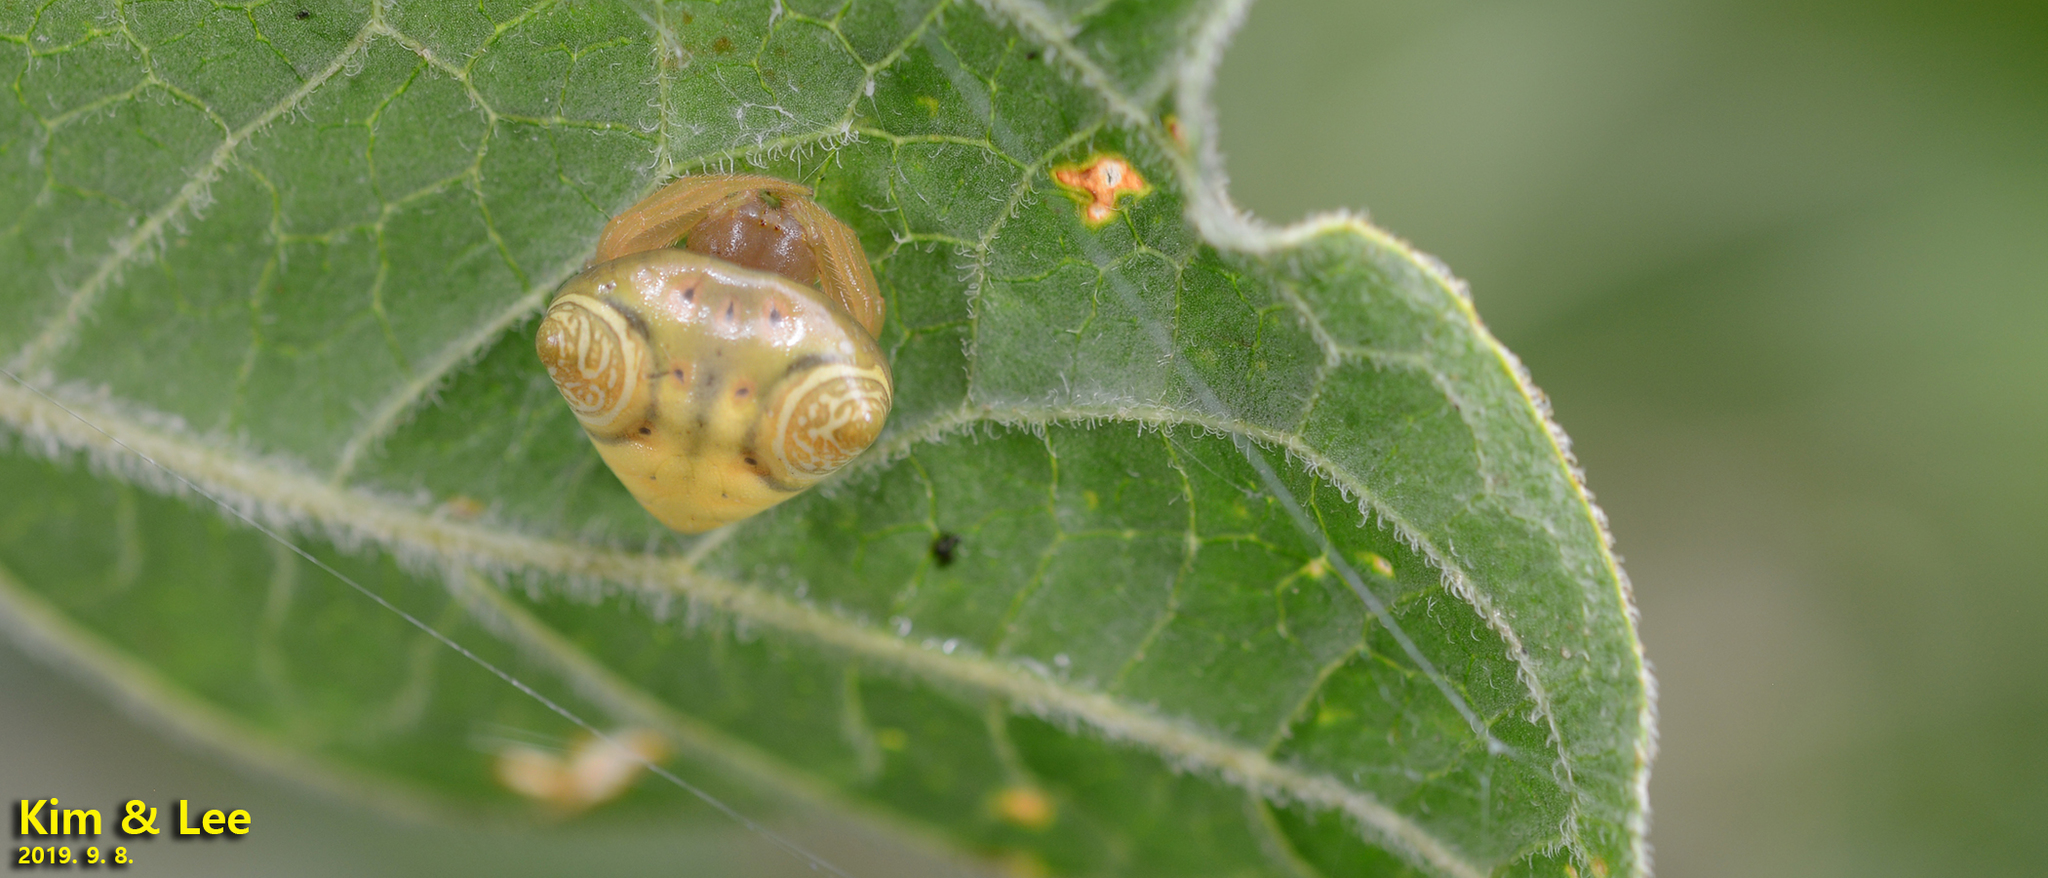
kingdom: Animalia
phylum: Arthropoda
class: Arachnida
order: Araneae
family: Araneidae
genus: Cyrtarachne
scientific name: Cyrtarachne inaequalis
